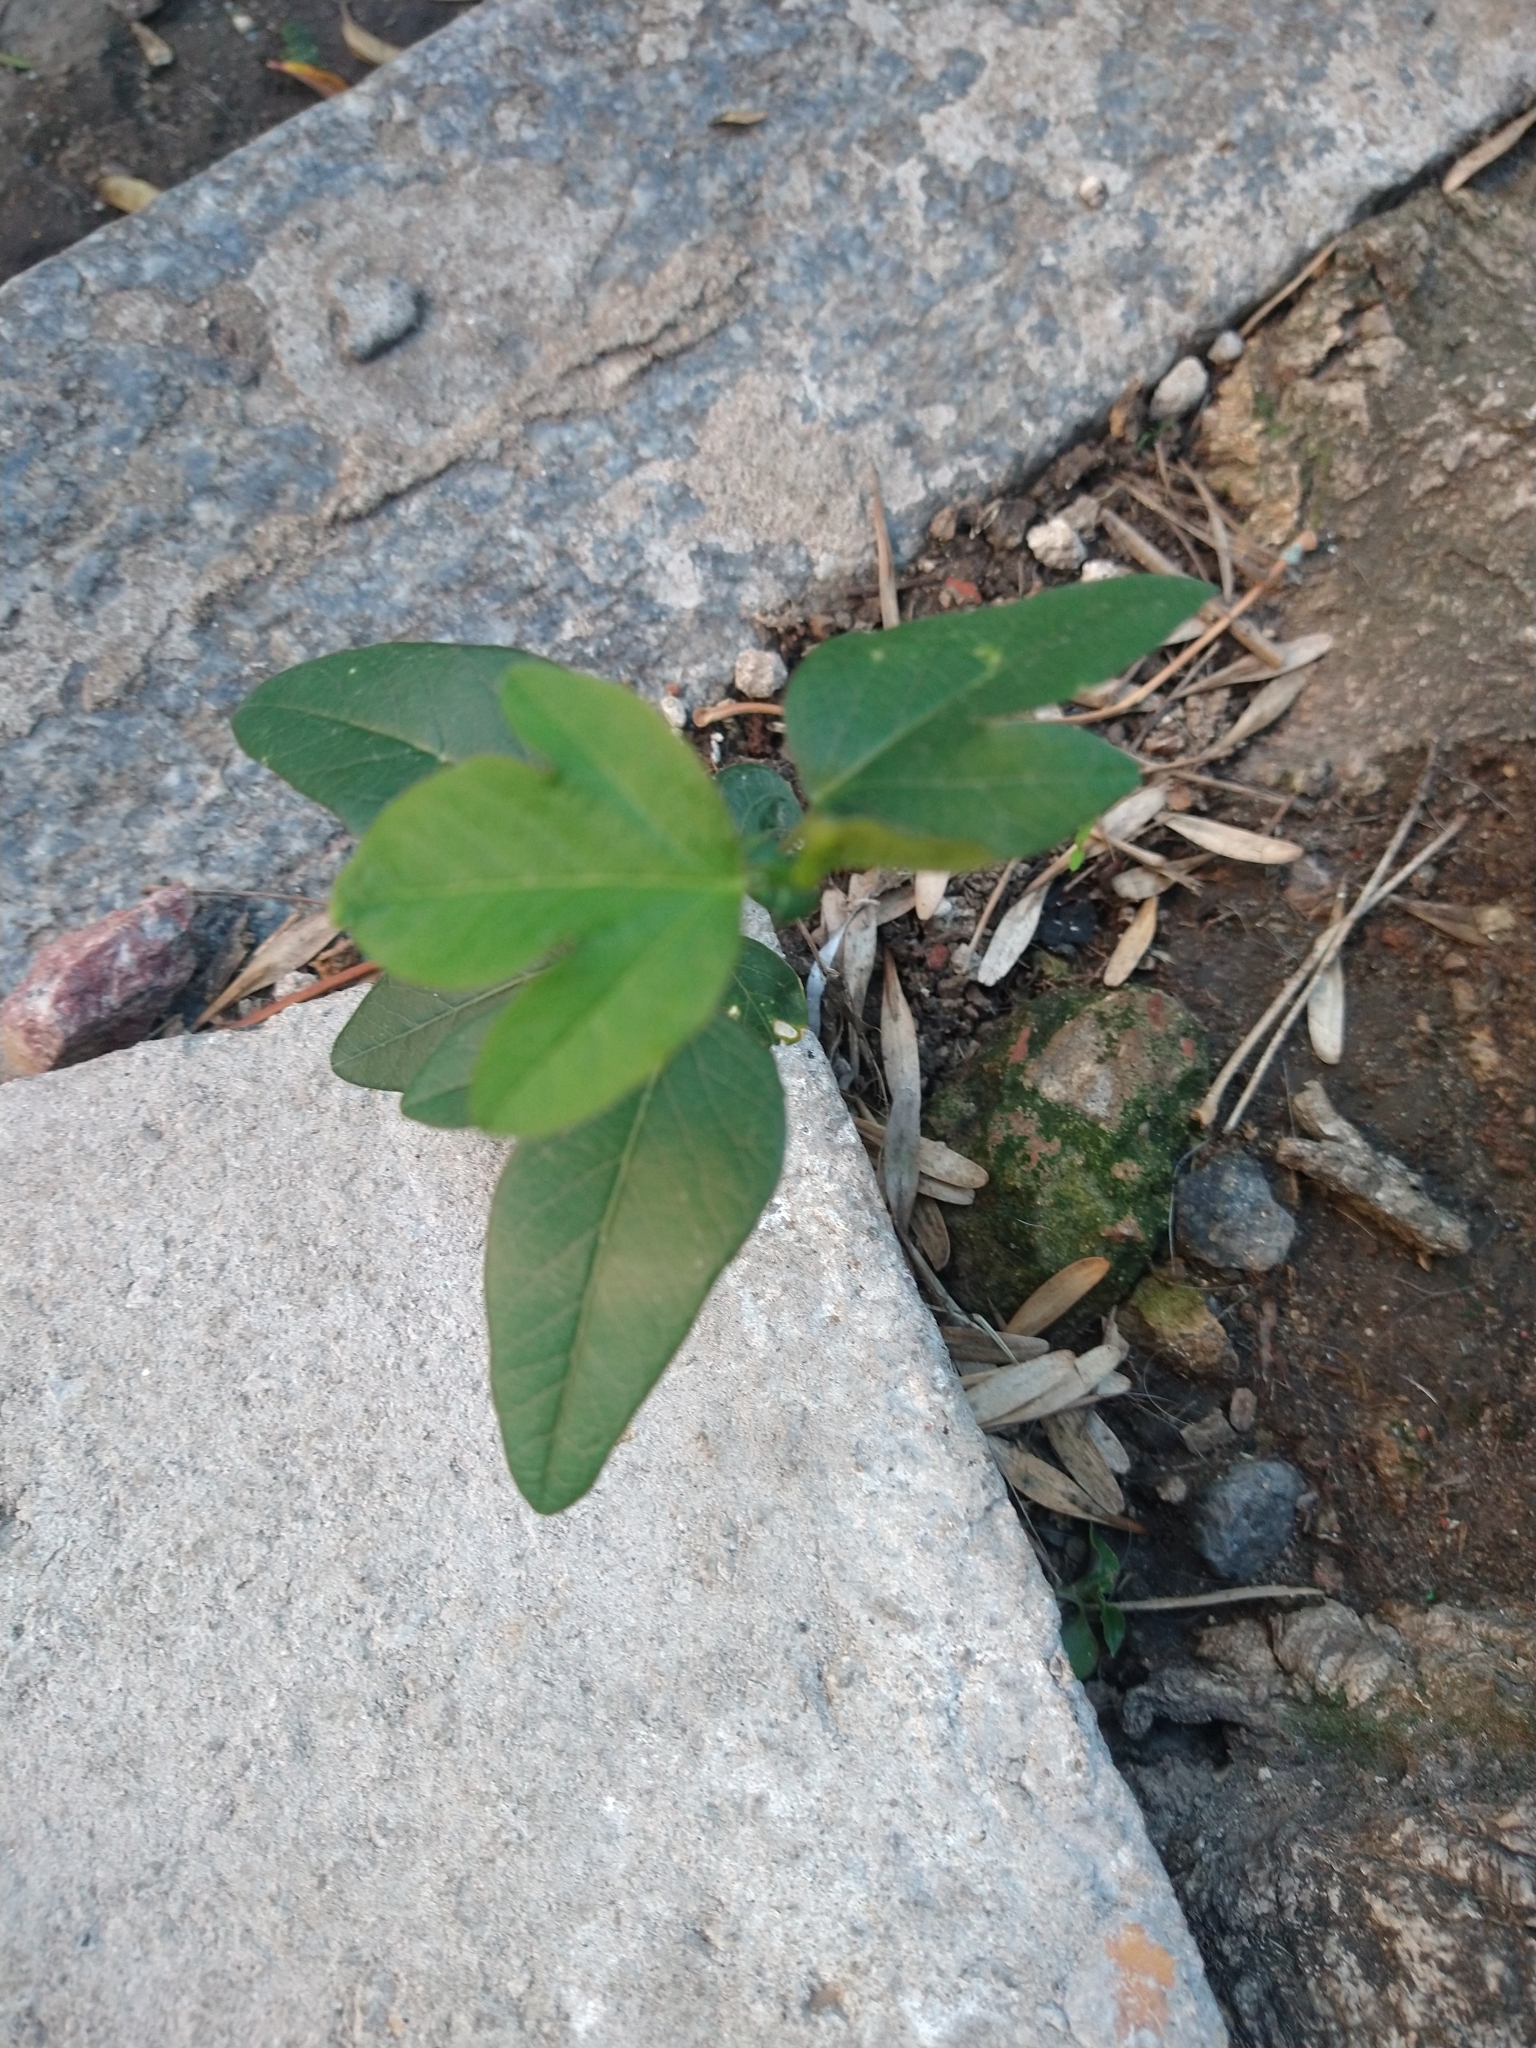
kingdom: Plantae
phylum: Tracheophyta
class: Magnoliopsida
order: Malpighiales
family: Passifloraceae
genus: Passiflora
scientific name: Passiflora caerulea
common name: Blue passionflower
